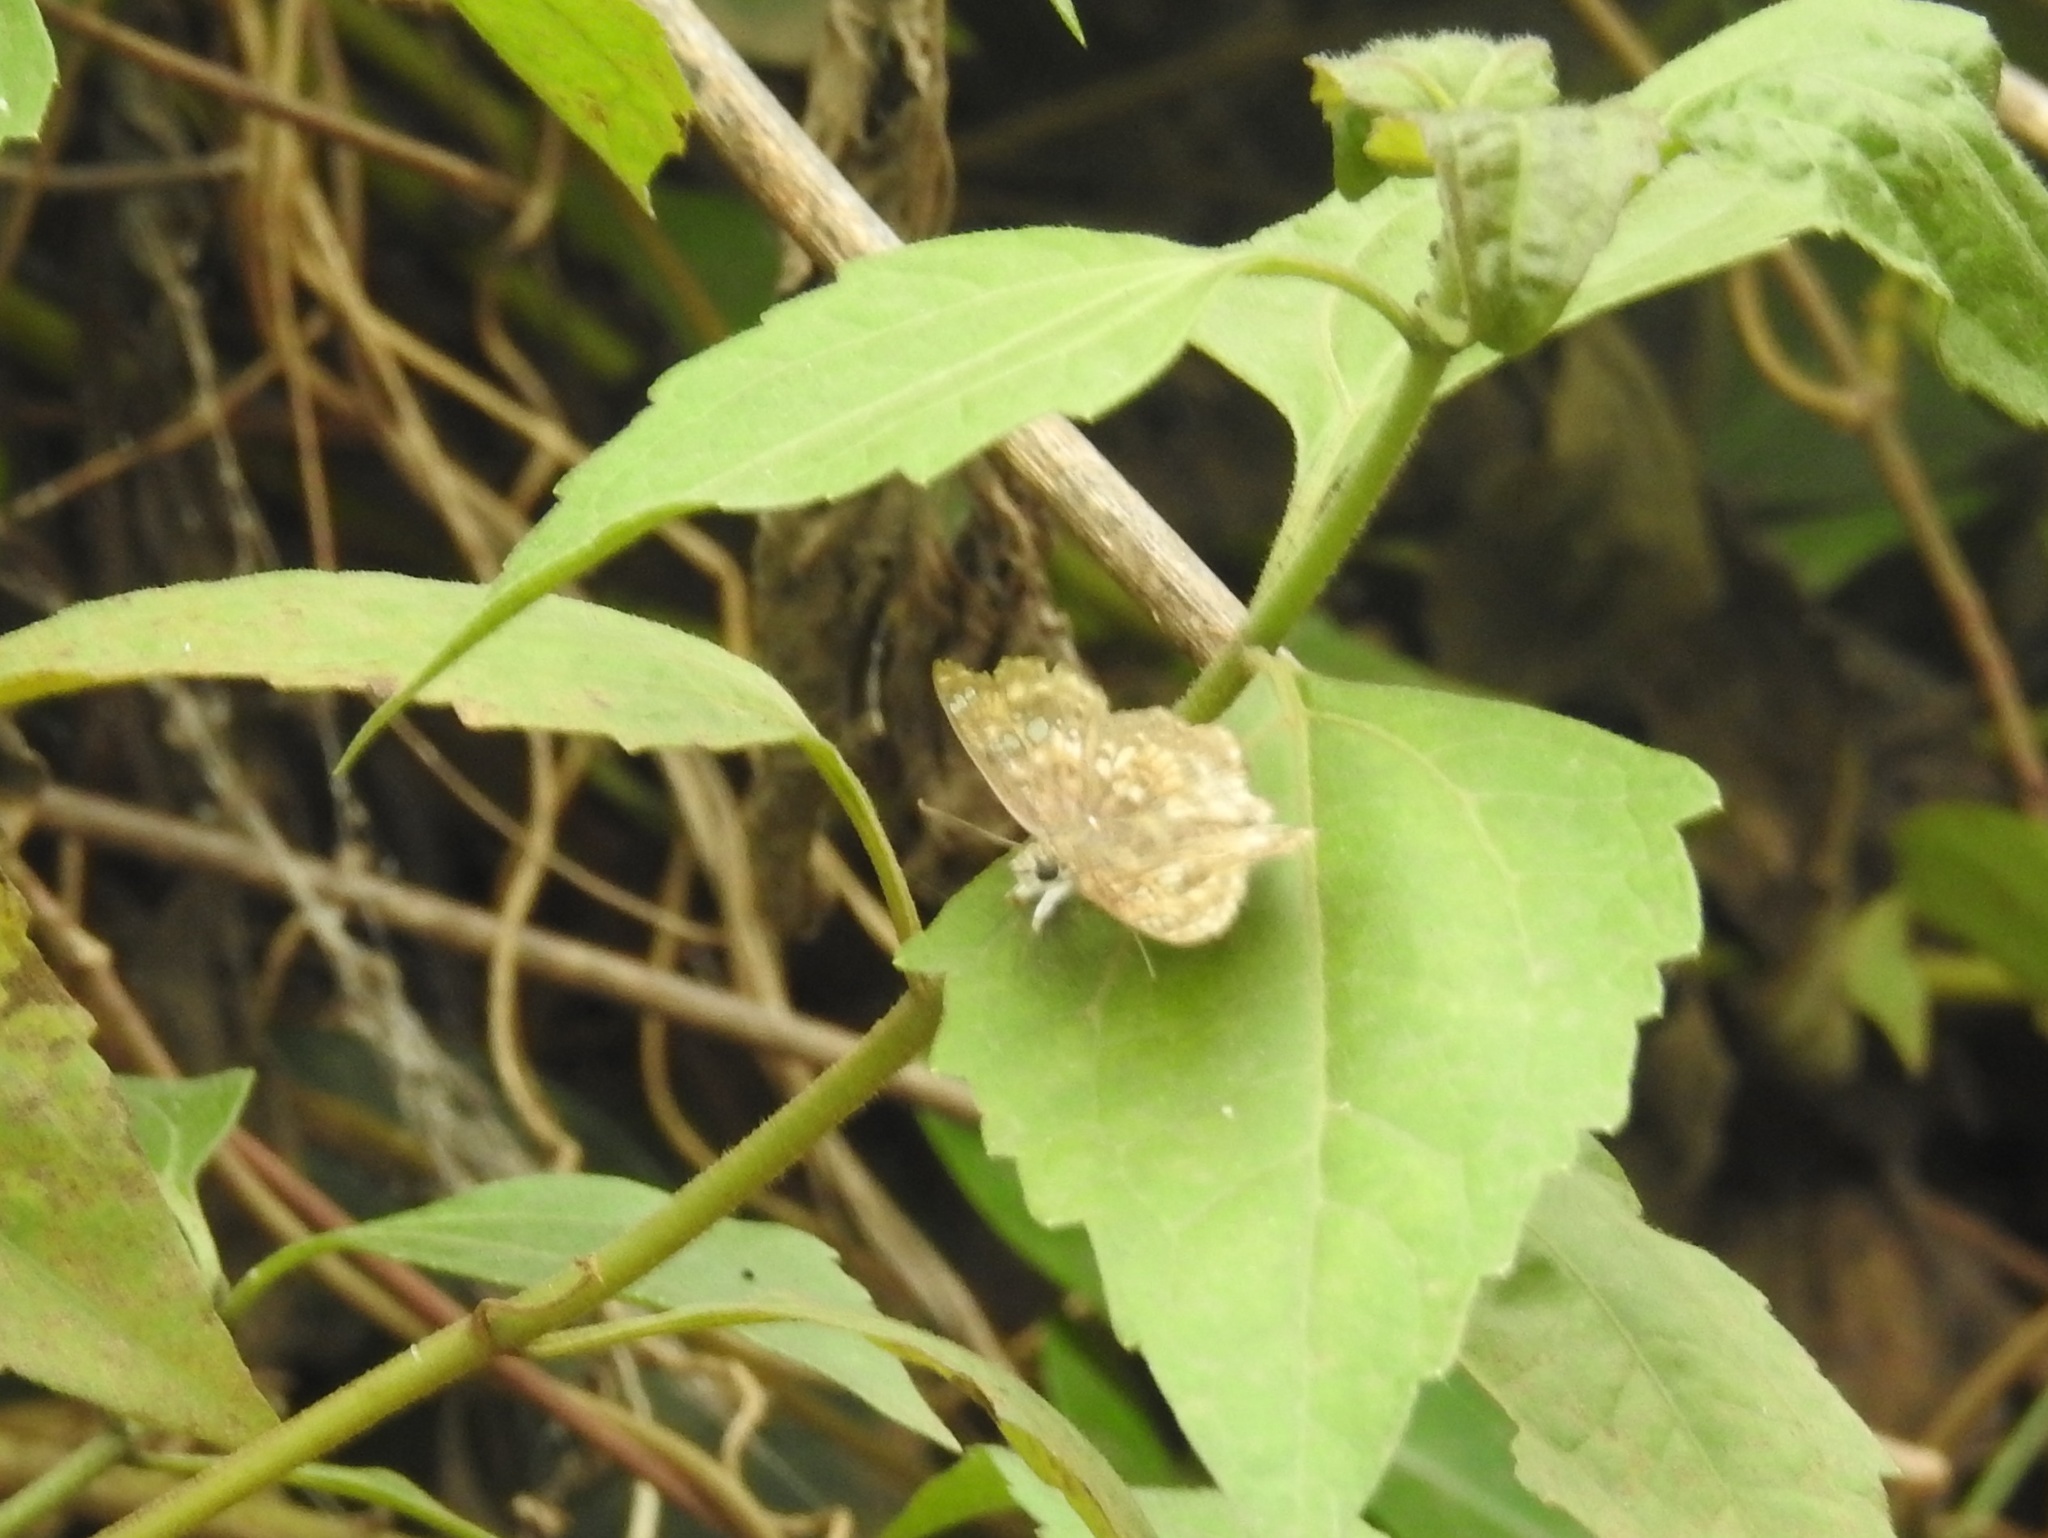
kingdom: Animalia
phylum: Arthropoda
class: Insecta
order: Lepidoptera
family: Hesperiidae
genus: Caprona
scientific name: Caprona ransonnettii
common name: Golden angle
